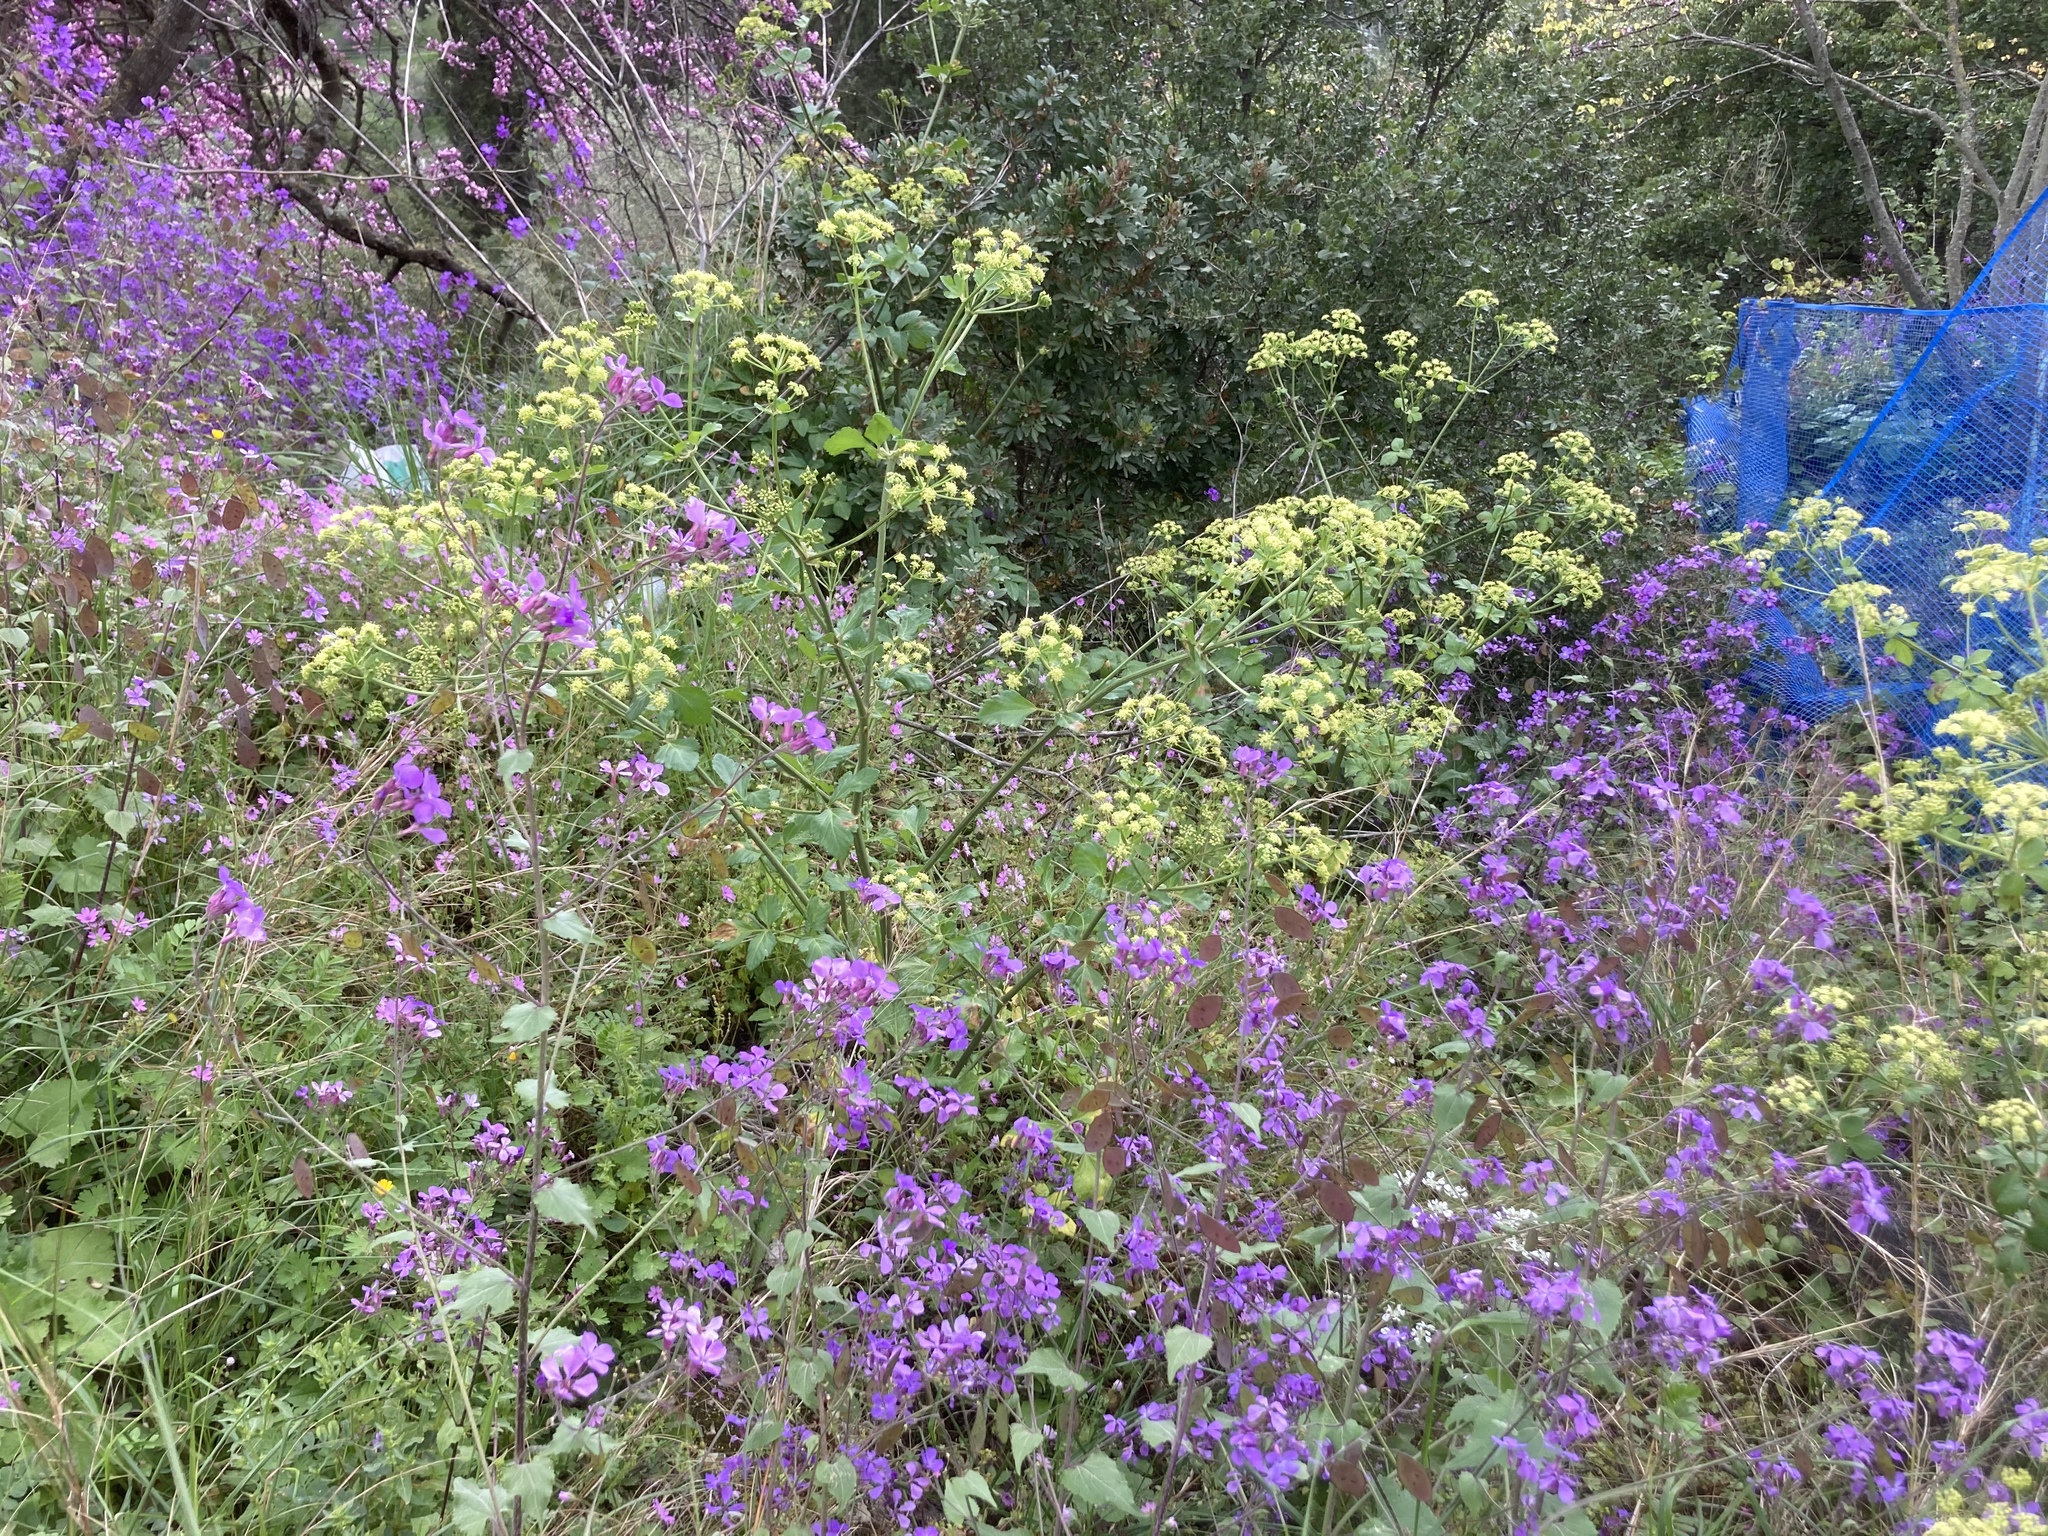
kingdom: Plantae
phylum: Tracheophyta
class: Magnoliopsida
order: Brassicales
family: Brassicaceae
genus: Lunaria
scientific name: Lunaria annua
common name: Honesty
